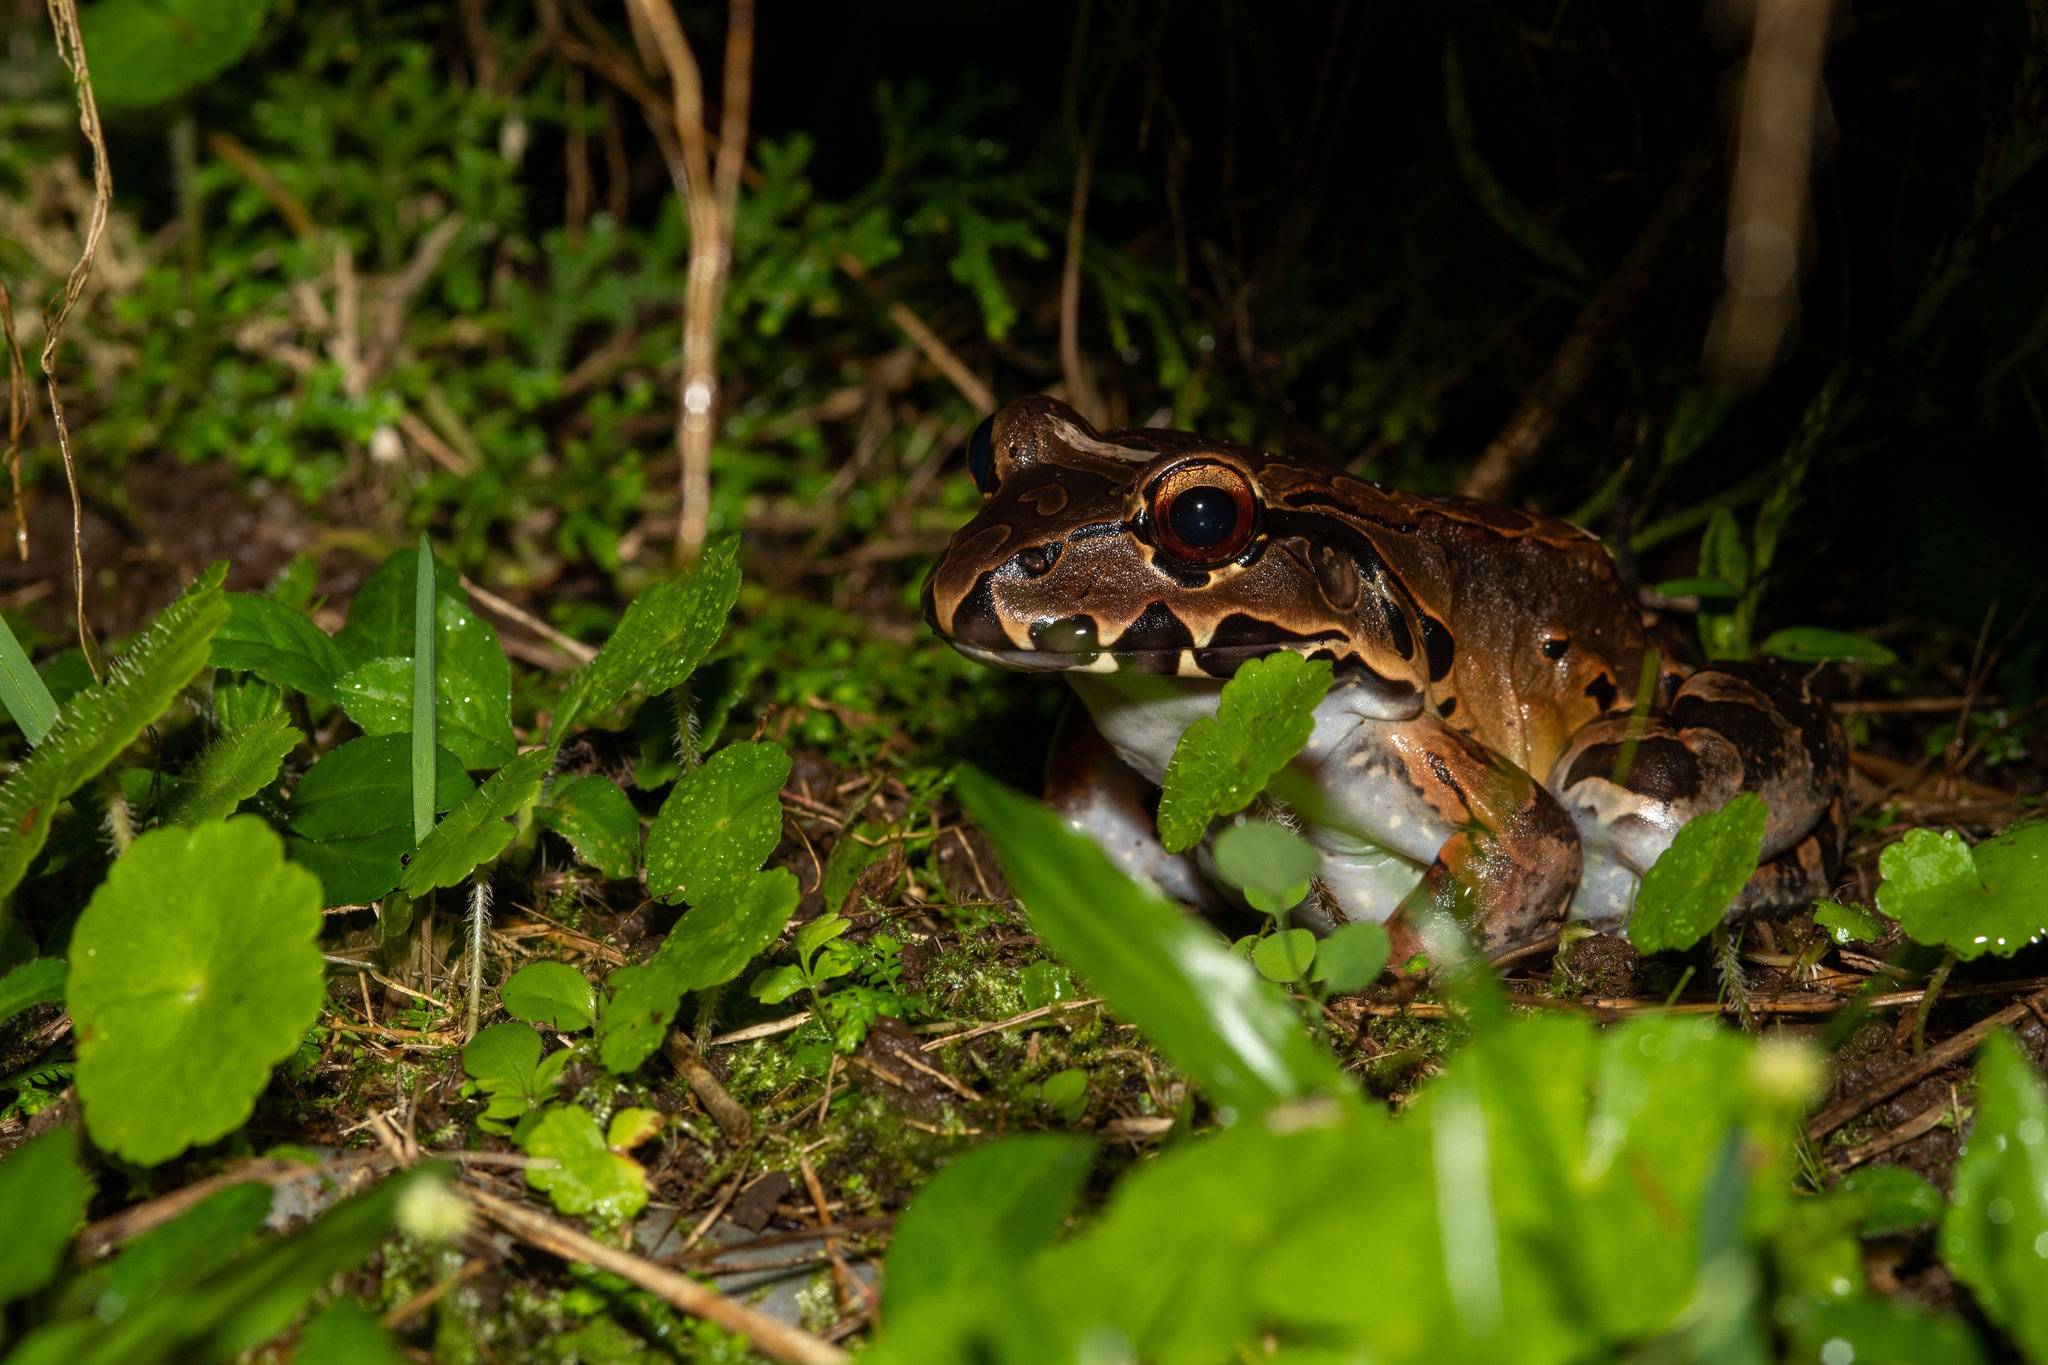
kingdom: Animalia
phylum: Chordata
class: Amphibia
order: Anura
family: Leptodactylidae
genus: Leptodactylus
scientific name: Leptodactylus savagei
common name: Savage's thin-toed frog
